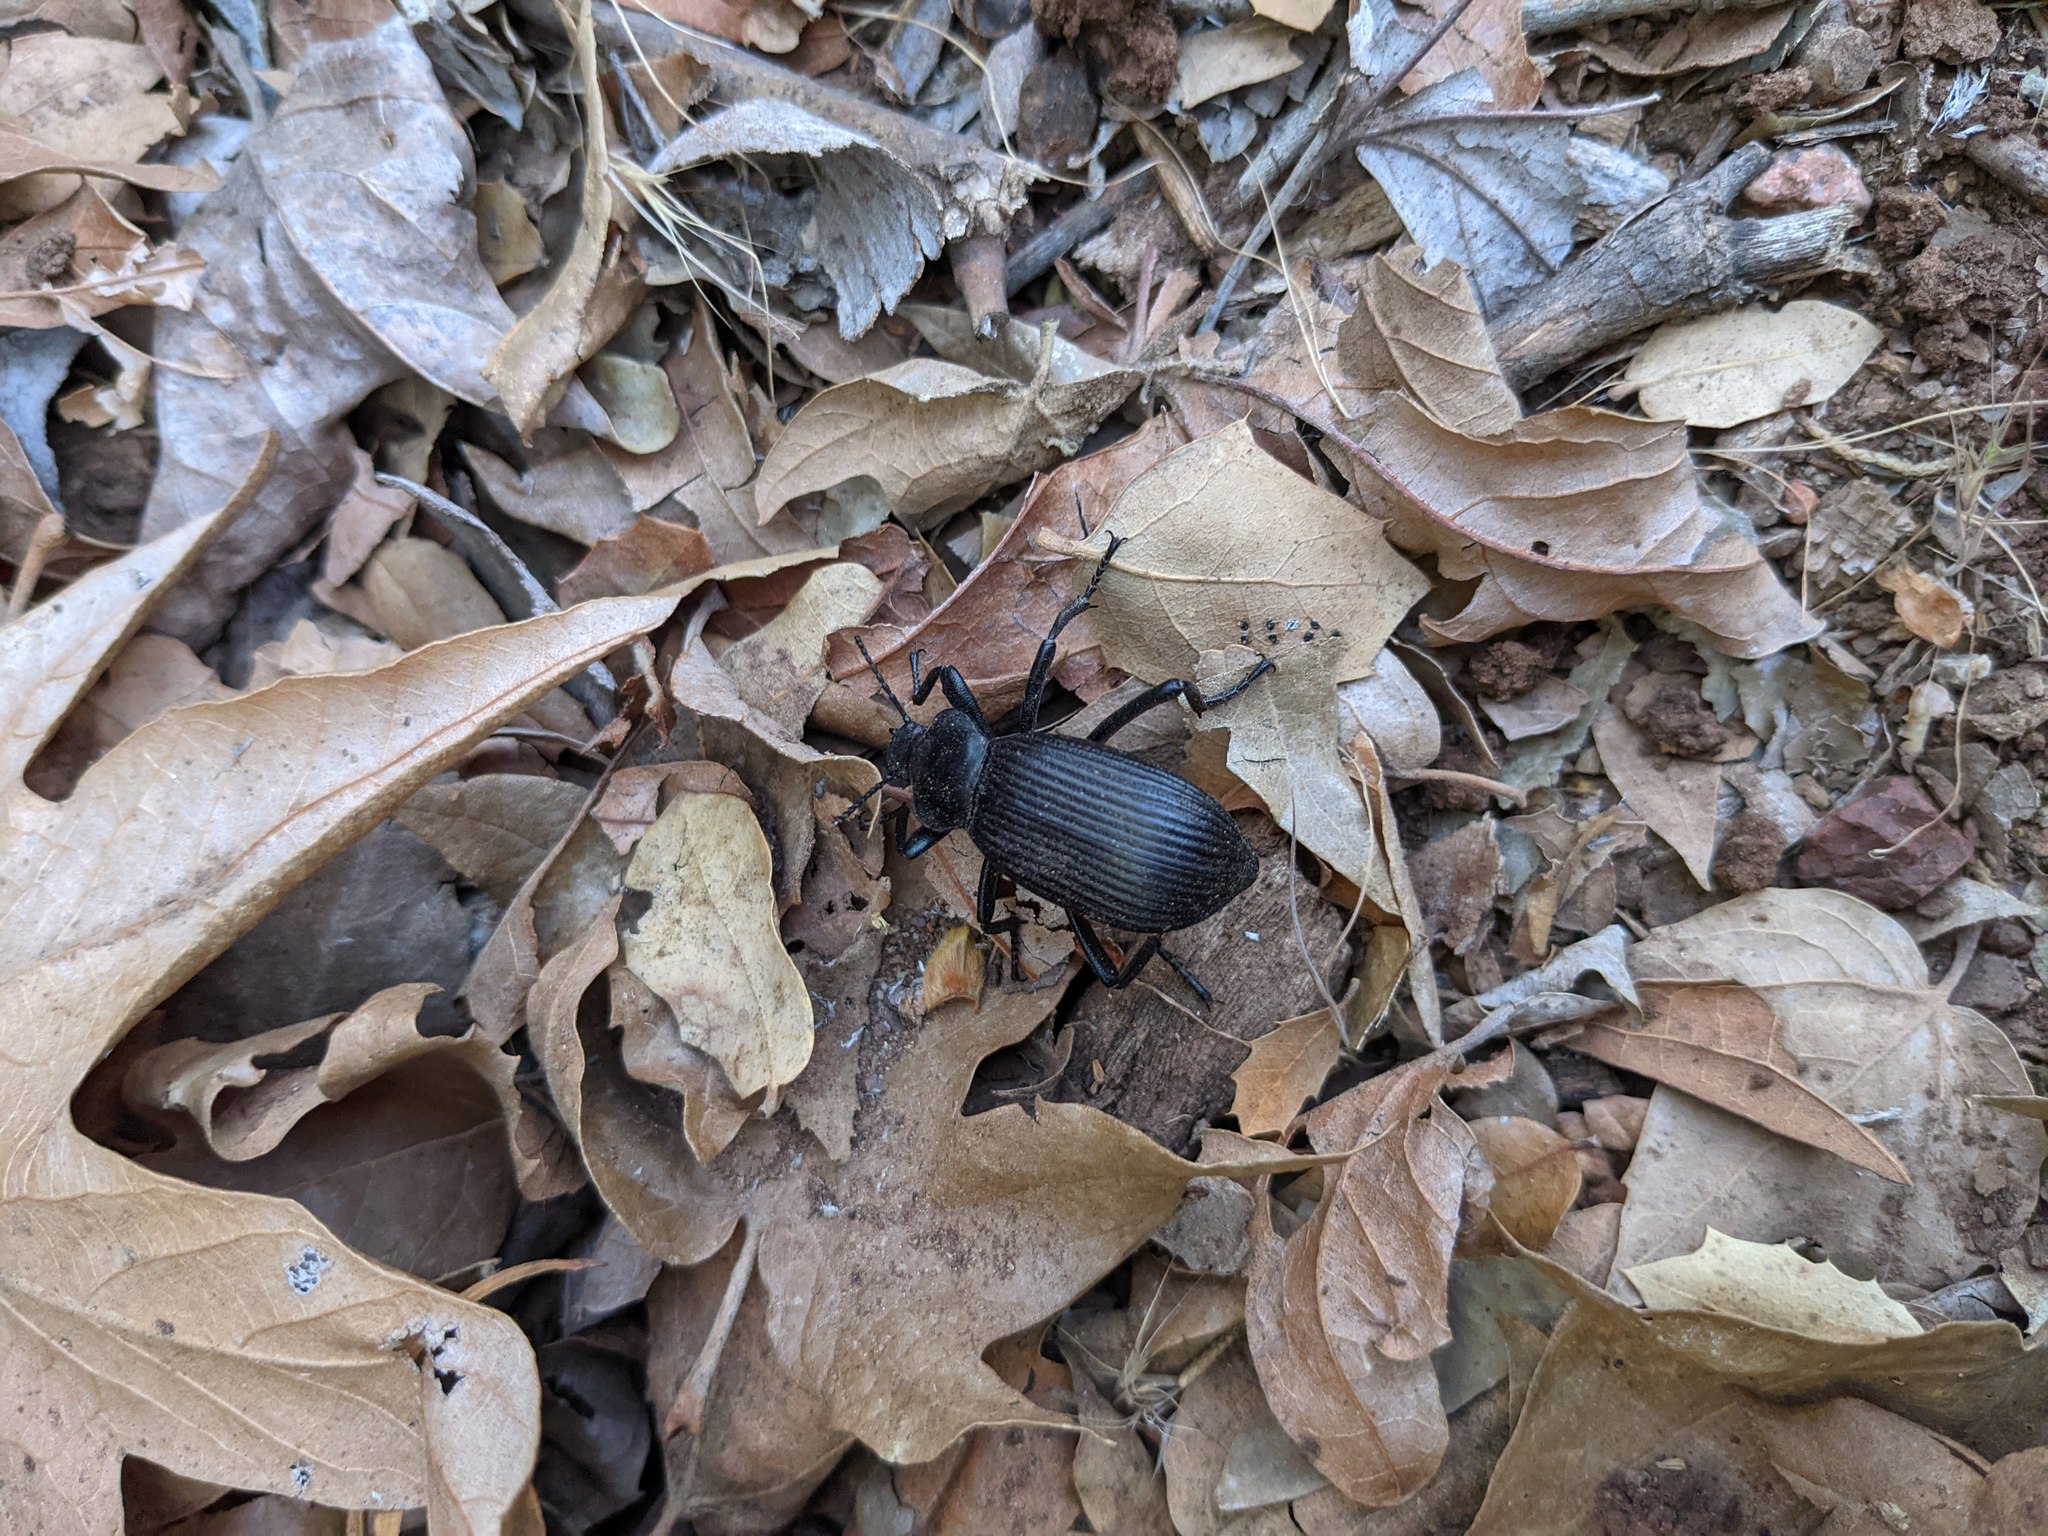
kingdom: Animalia
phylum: Arthropoda
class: Insecta
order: Coleoptera
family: Tenebrionidae
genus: Eleodes
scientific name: Eleodes obscura
